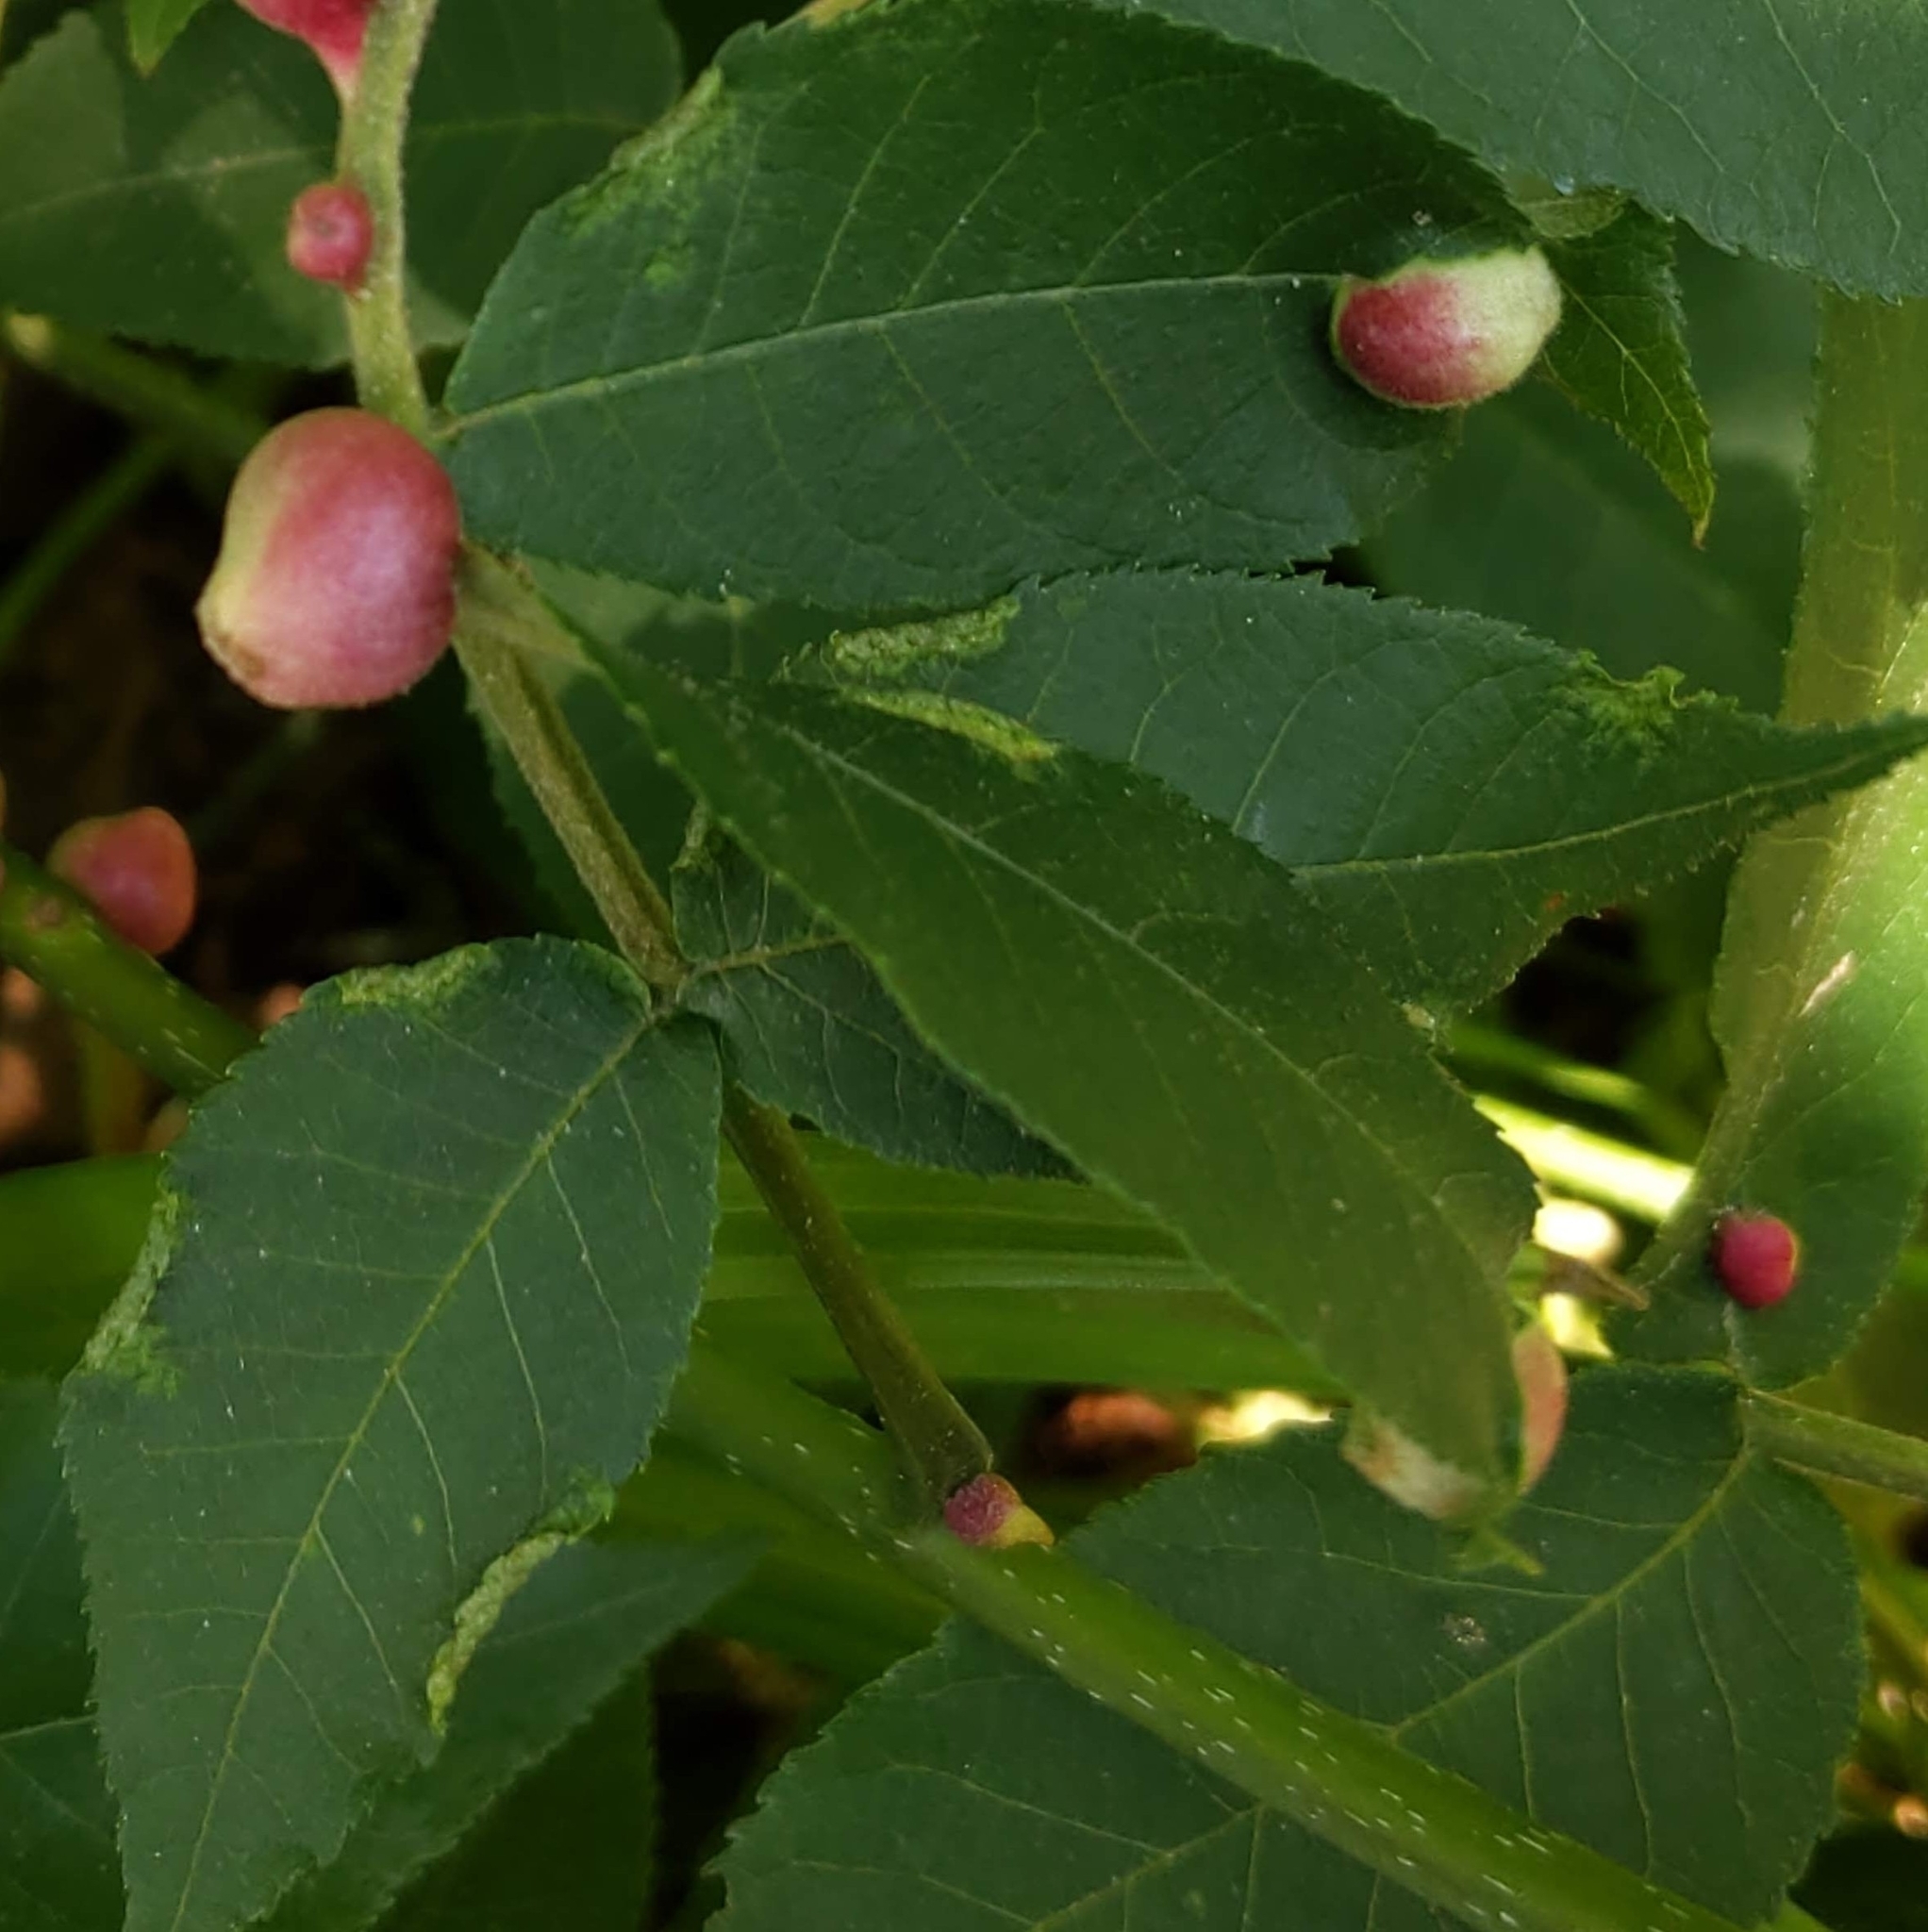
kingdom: Animalia
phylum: Arthropoda
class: Arachnida
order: Trombidiformes
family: Eriophyidae
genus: Aceria
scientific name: Aceria carlinae
